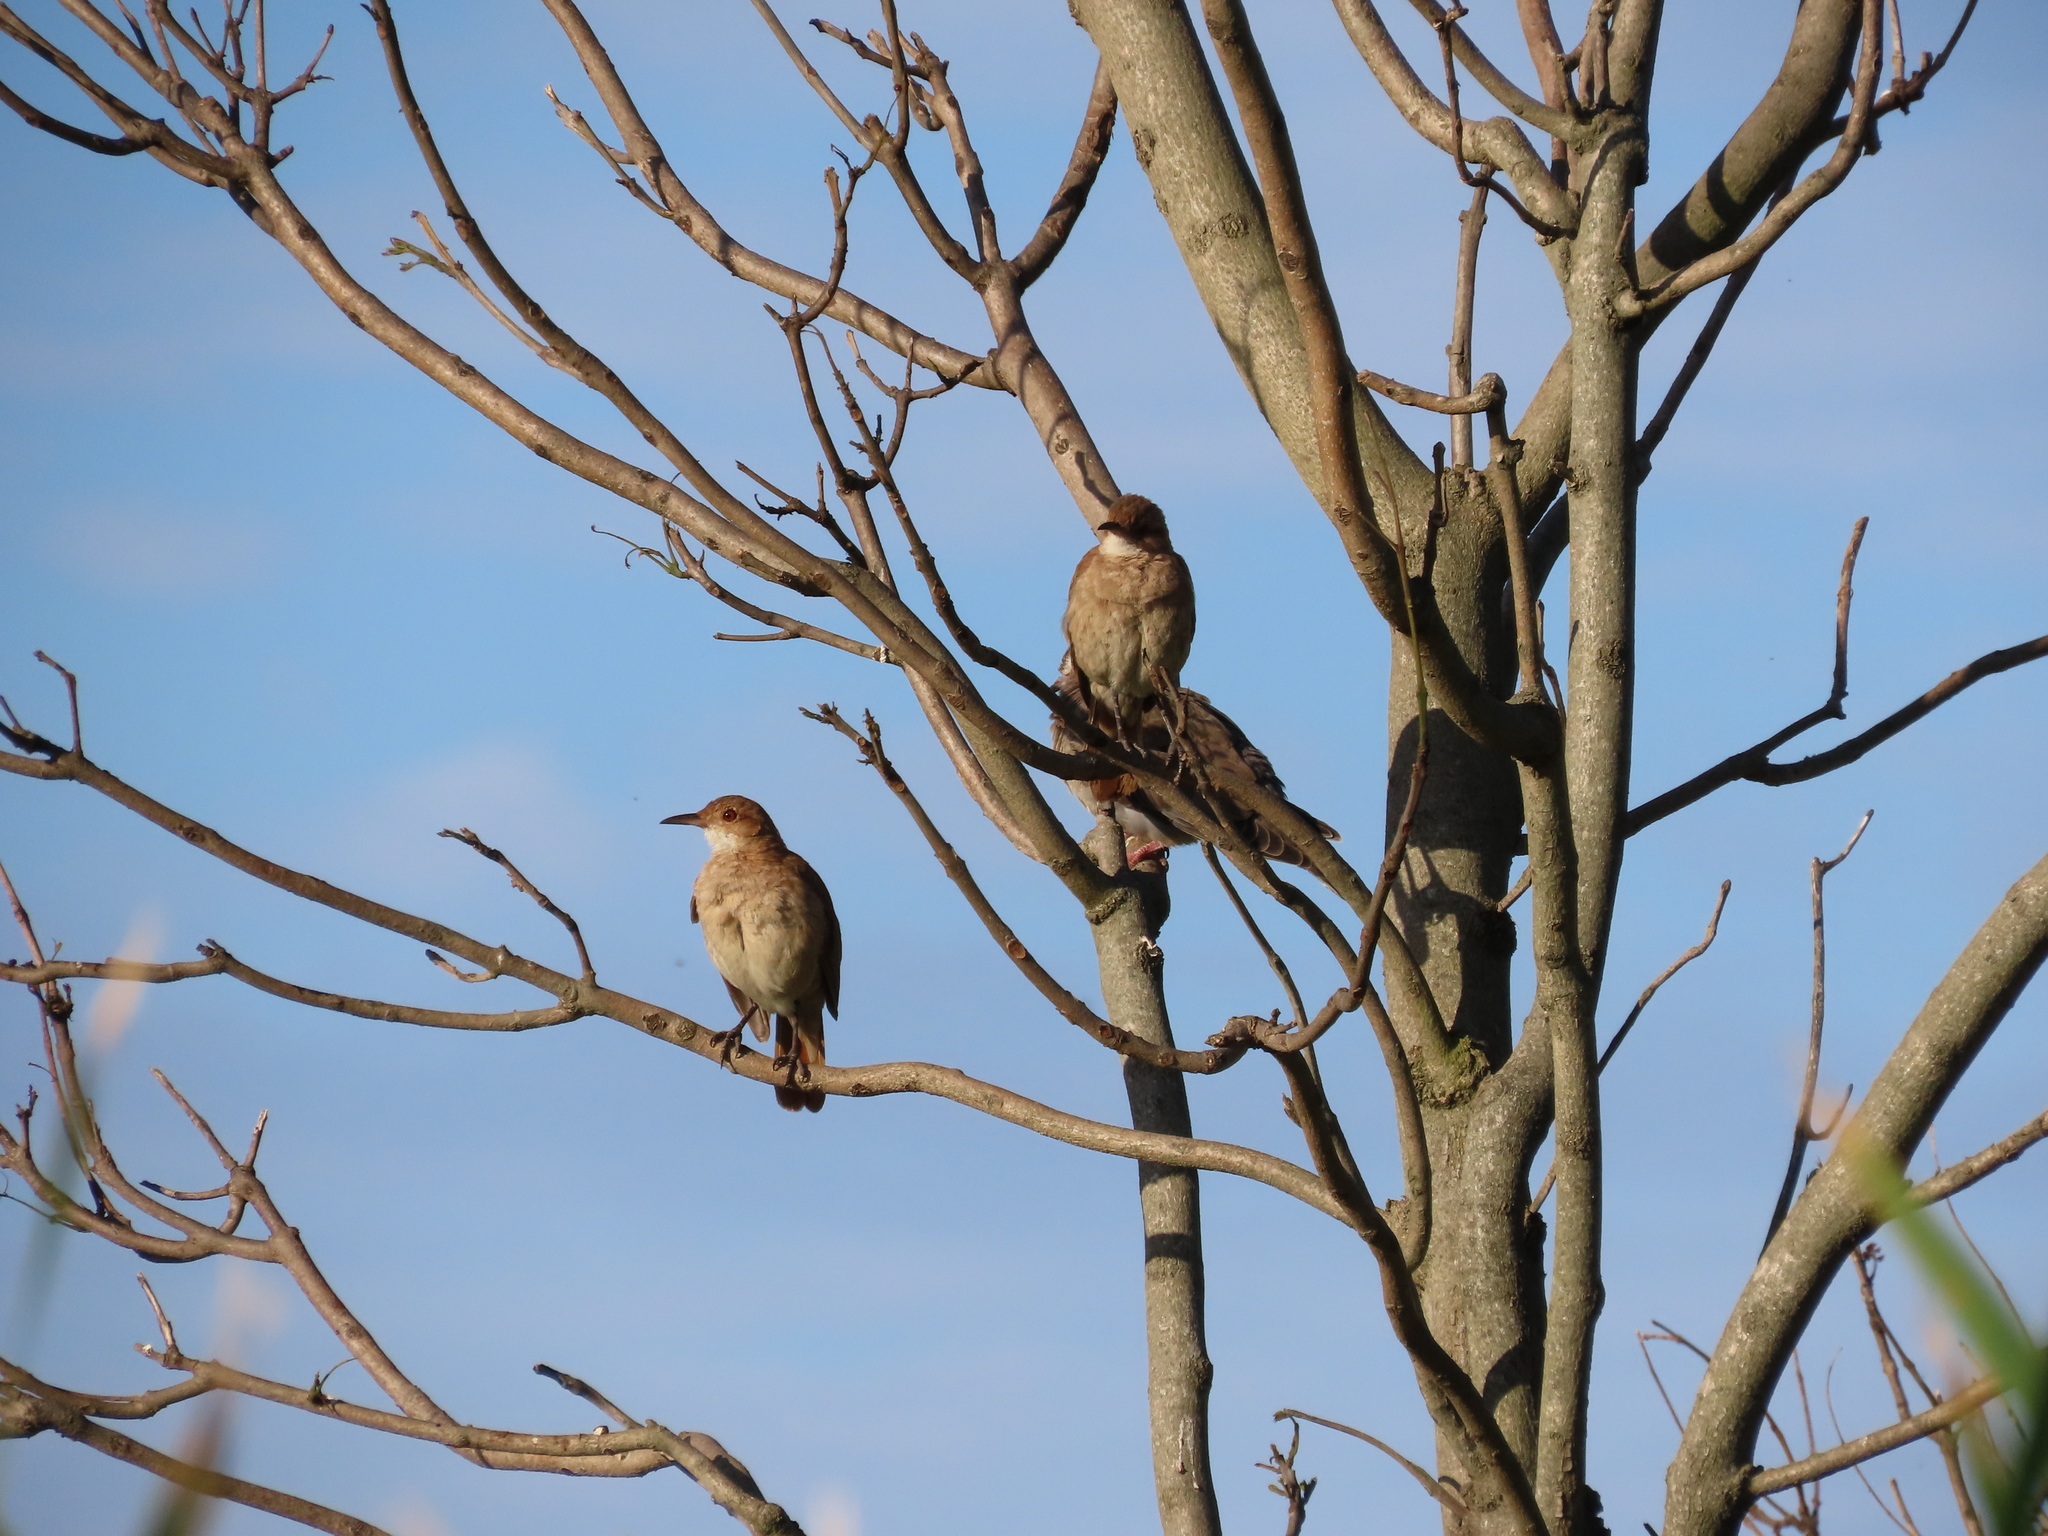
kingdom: Animalia
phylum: Chordata
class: Aves
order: Passeriformes
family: Furnariidae
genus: Furnarius
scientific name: Furnarius rufus
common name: Rufous hornero
